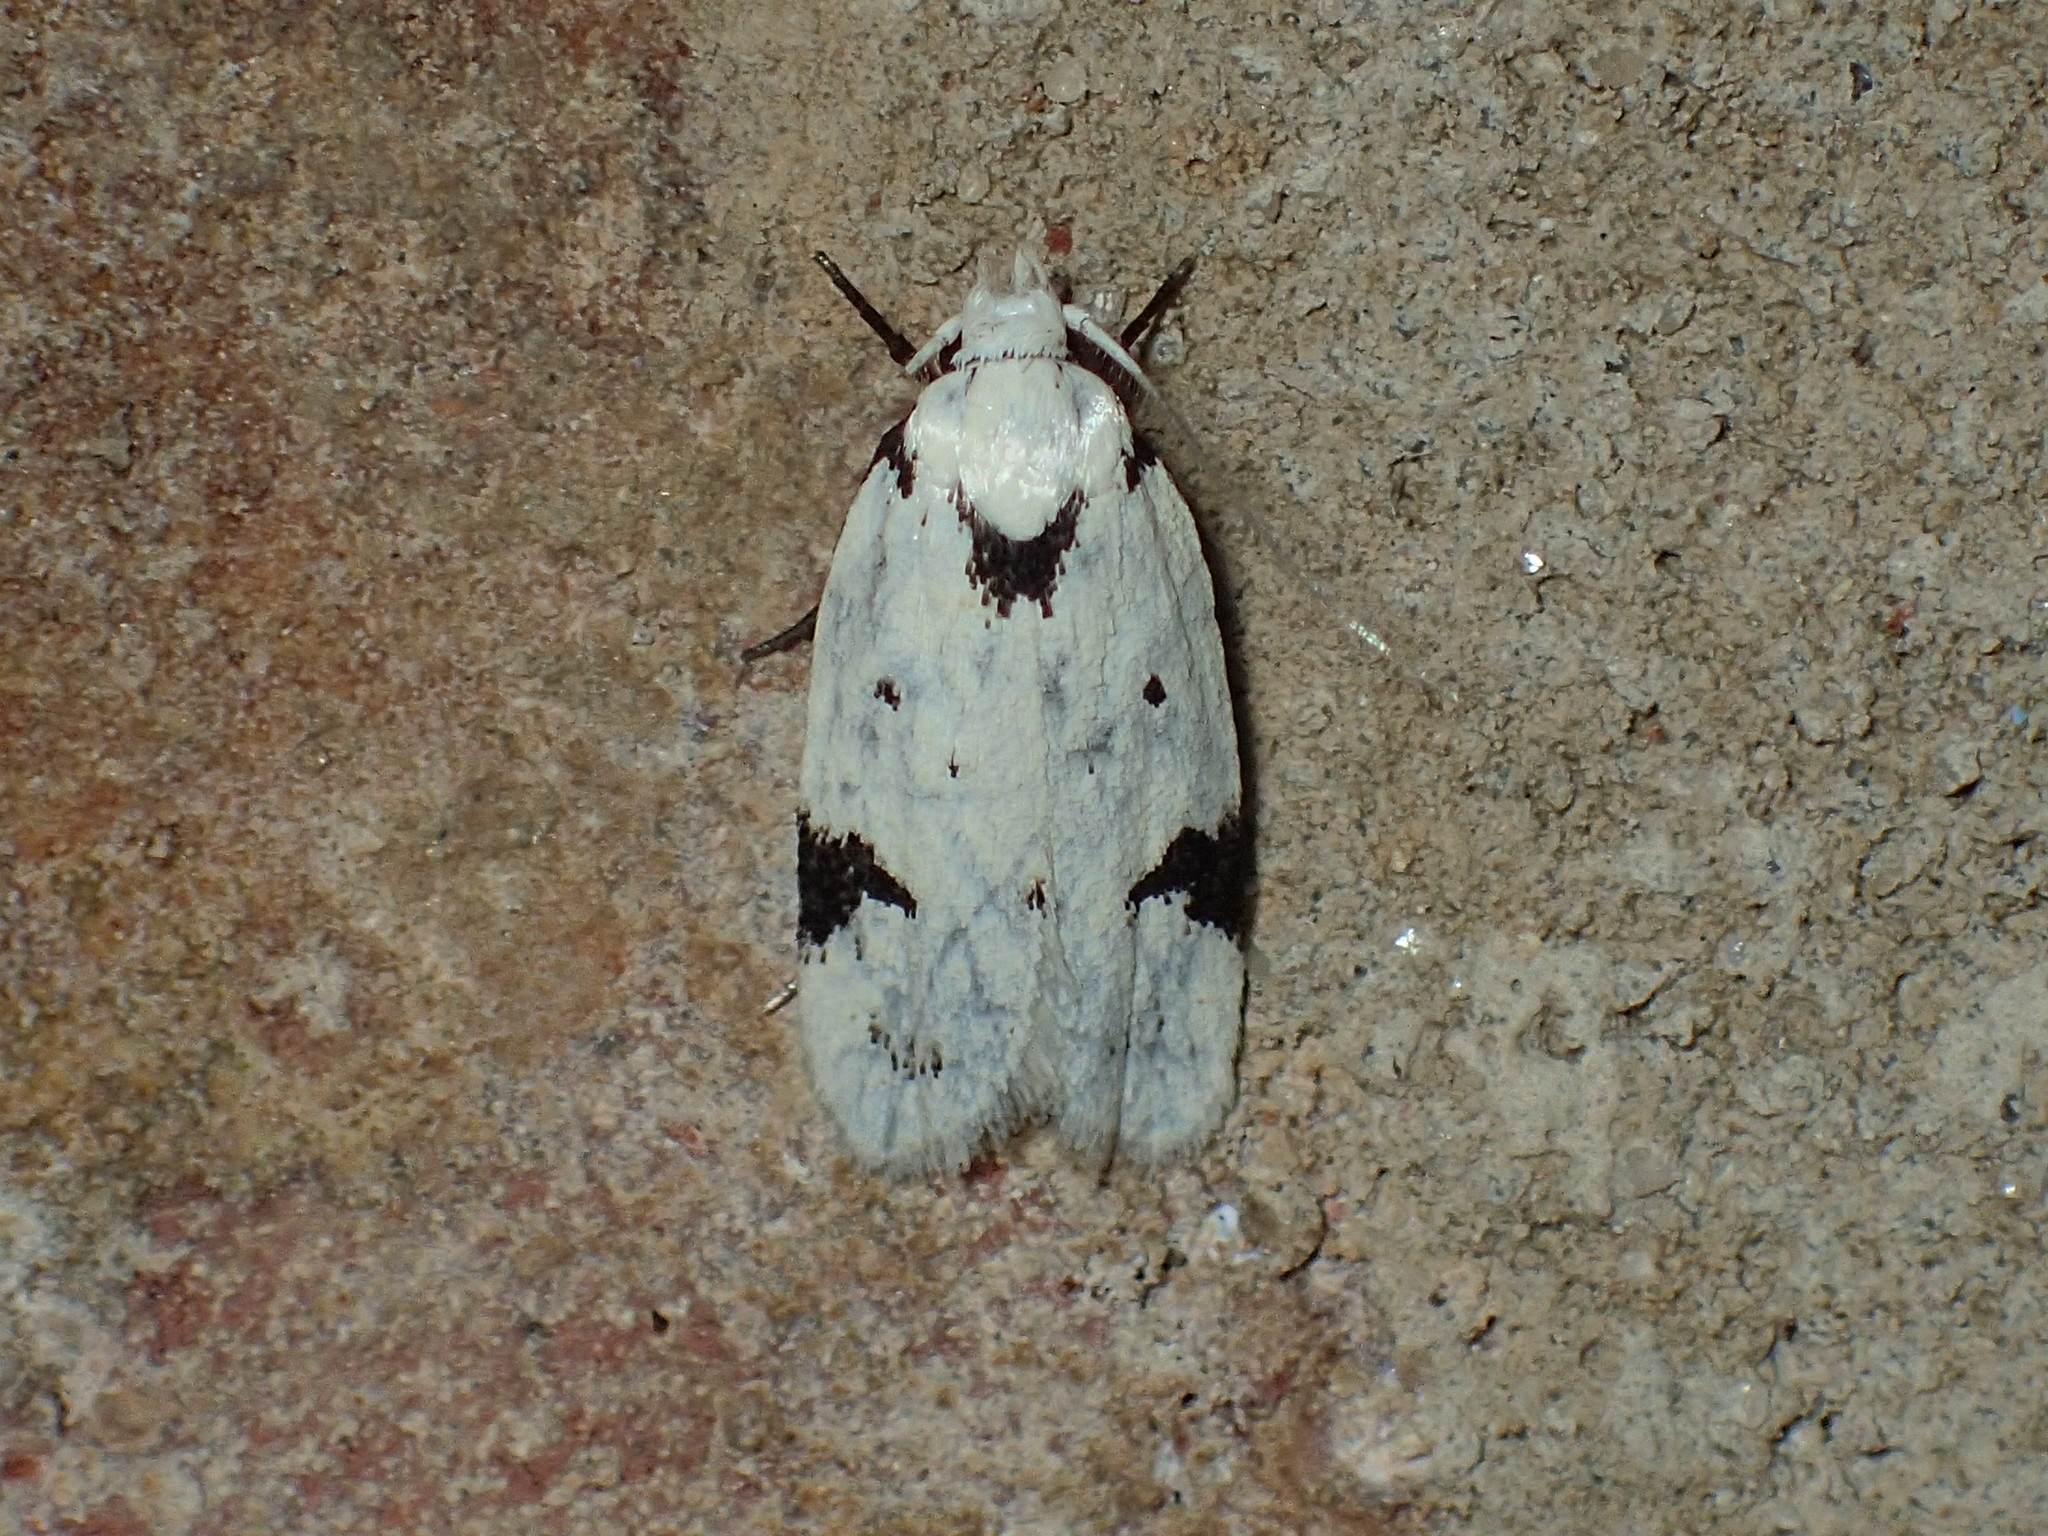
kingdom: Animalia
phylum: Arthropoda
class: Insecta
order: Lepidoptera
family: Oecophoridae
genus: Inga
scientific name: Inga sparsiciliella
